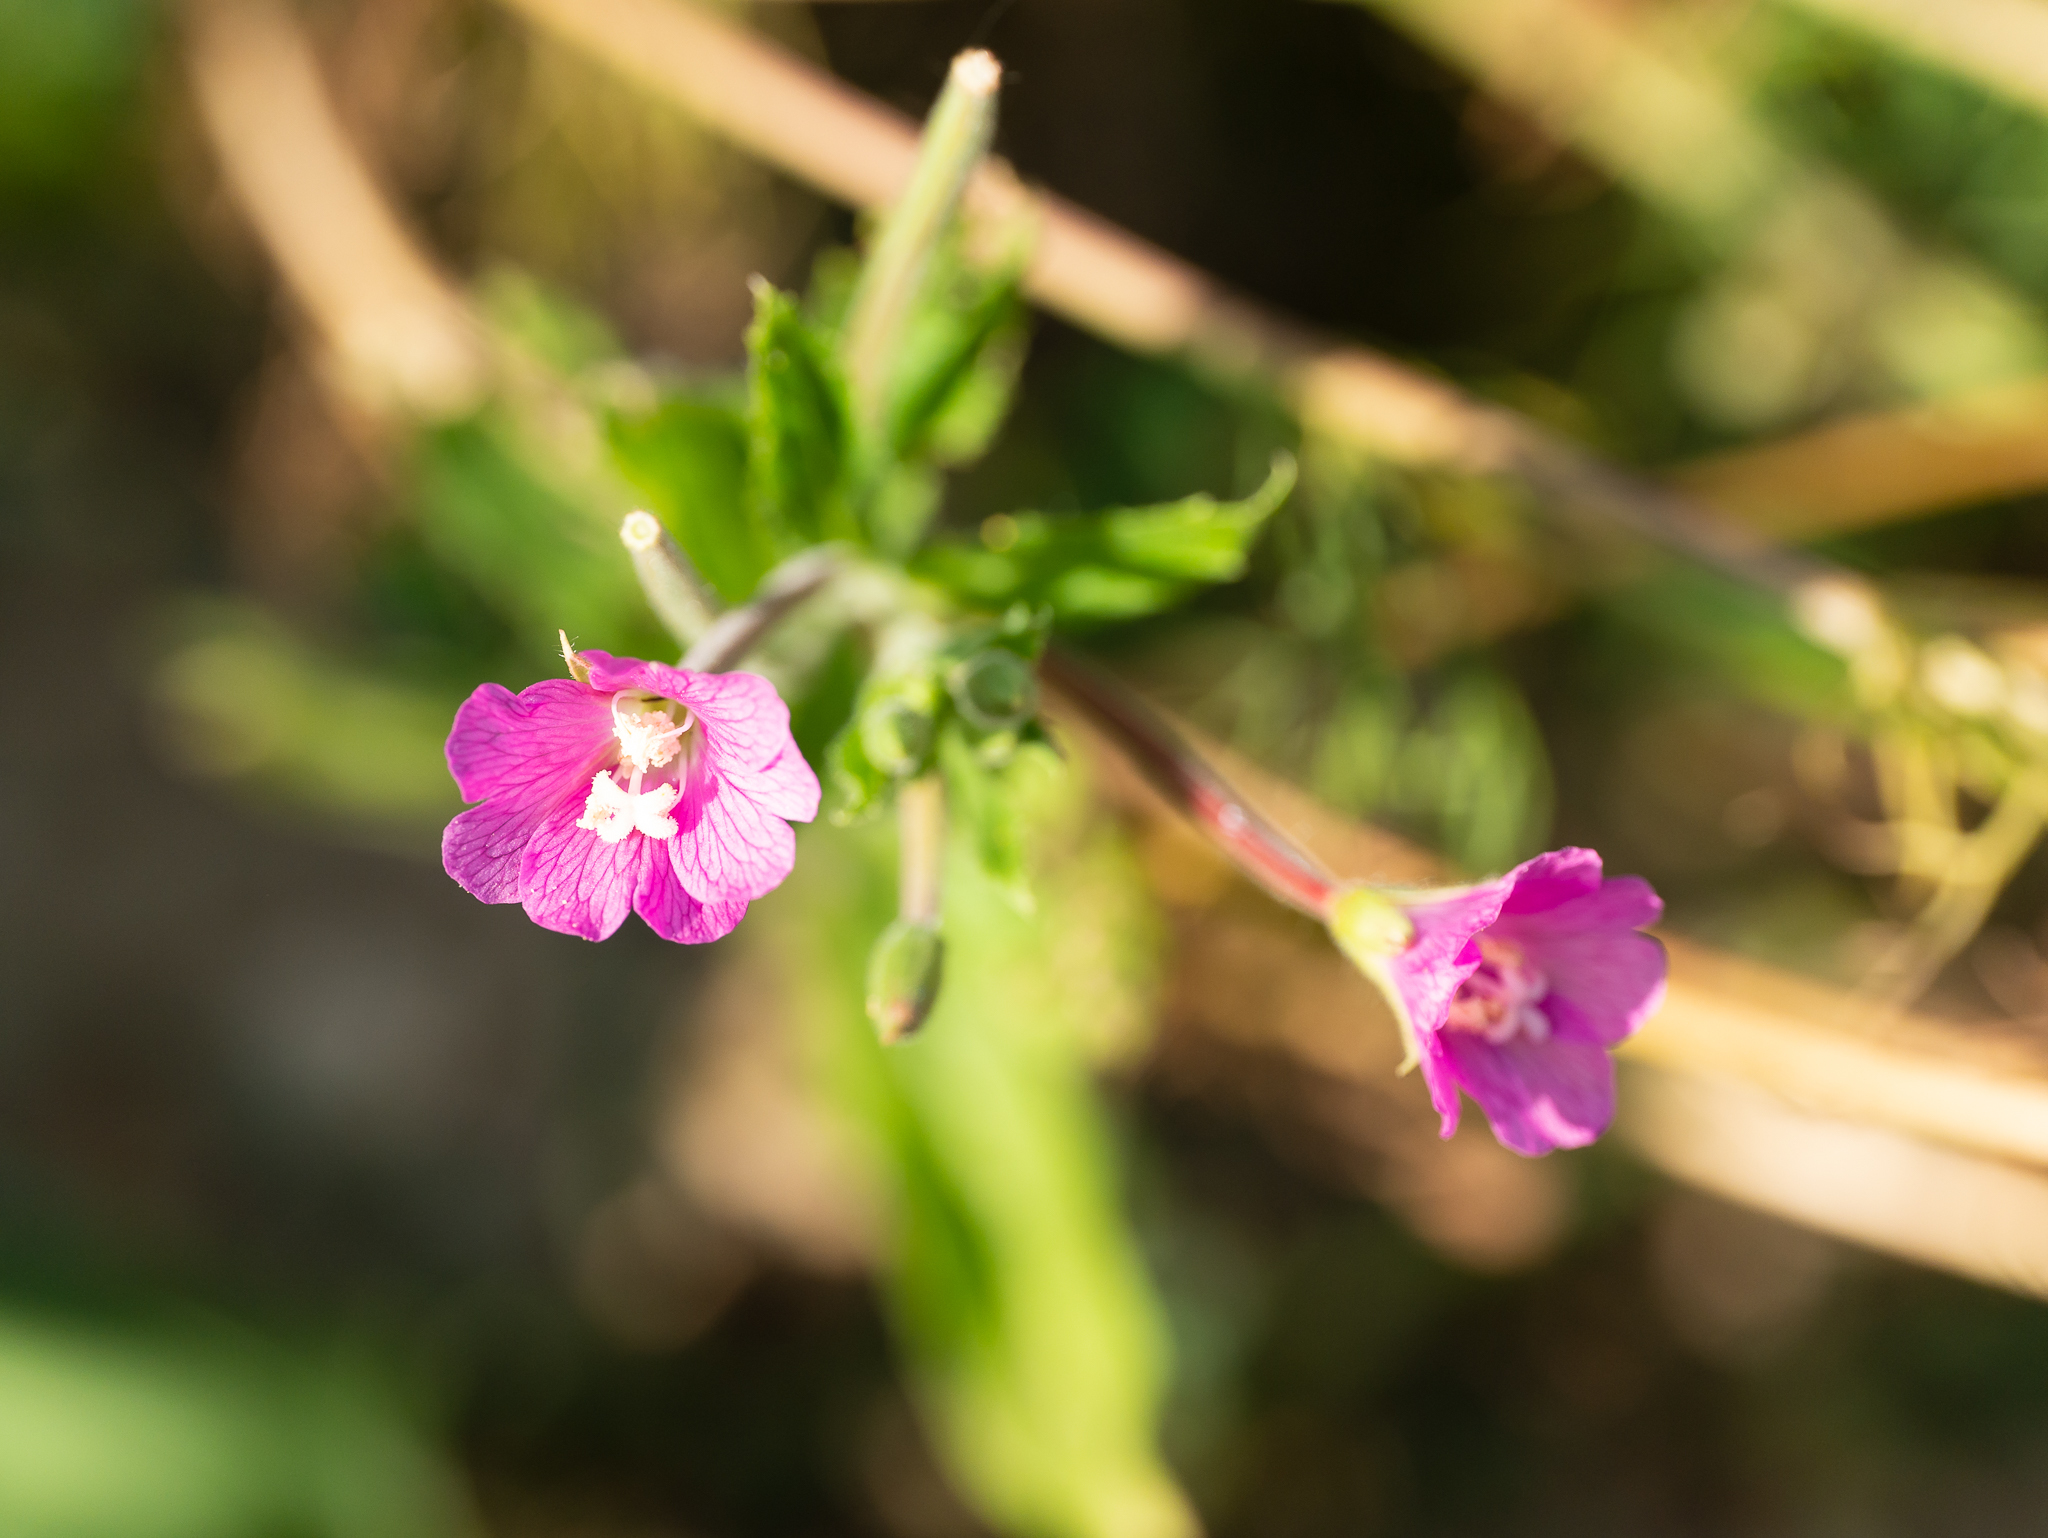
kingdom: Plantae
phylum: Tracheophyta
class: Magnoliopsida
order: Myrtales
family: Onagraceae
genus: Epilobium
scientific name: Epilobium hirsutum
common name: Great willowherb
